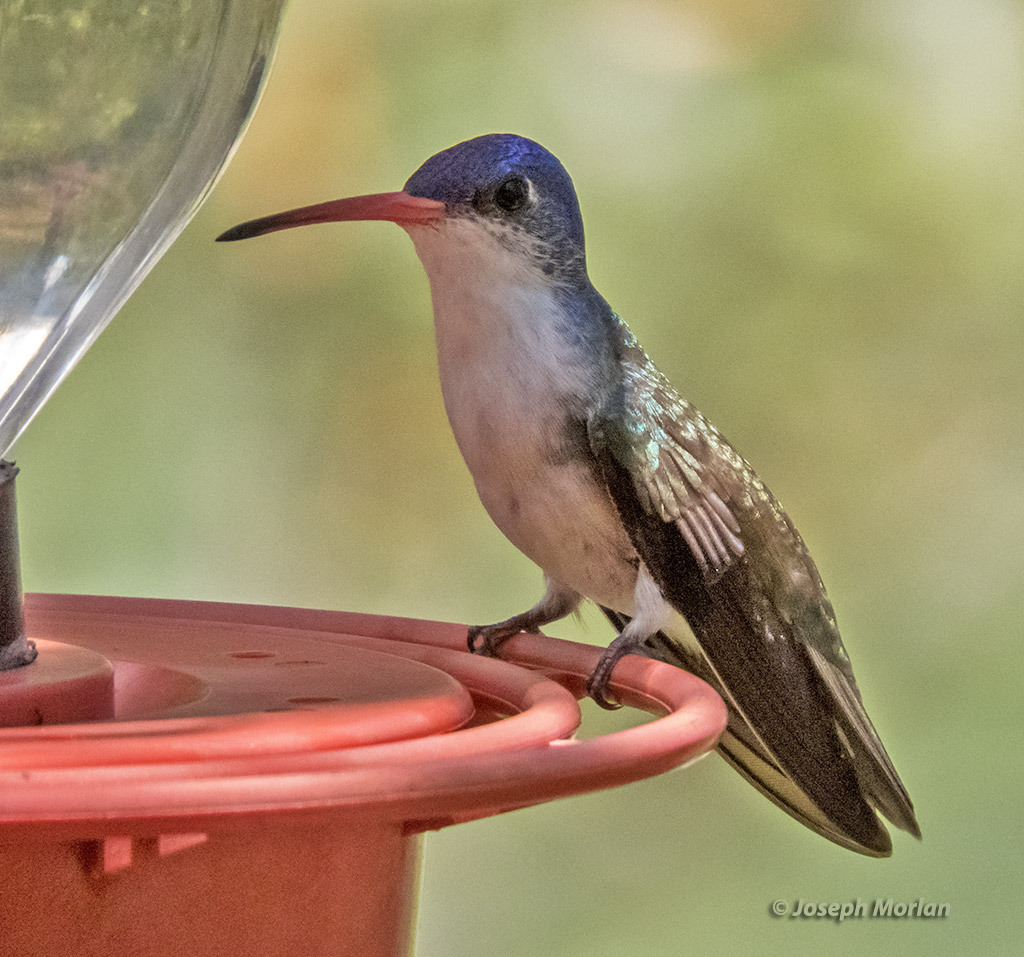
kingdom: Animalia
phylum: Chordata
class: Aves
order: Apodiformes
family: Trochilidae
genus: Leucolia
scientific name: Leucolia violiceps
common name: Violet-crowned hummingbird
